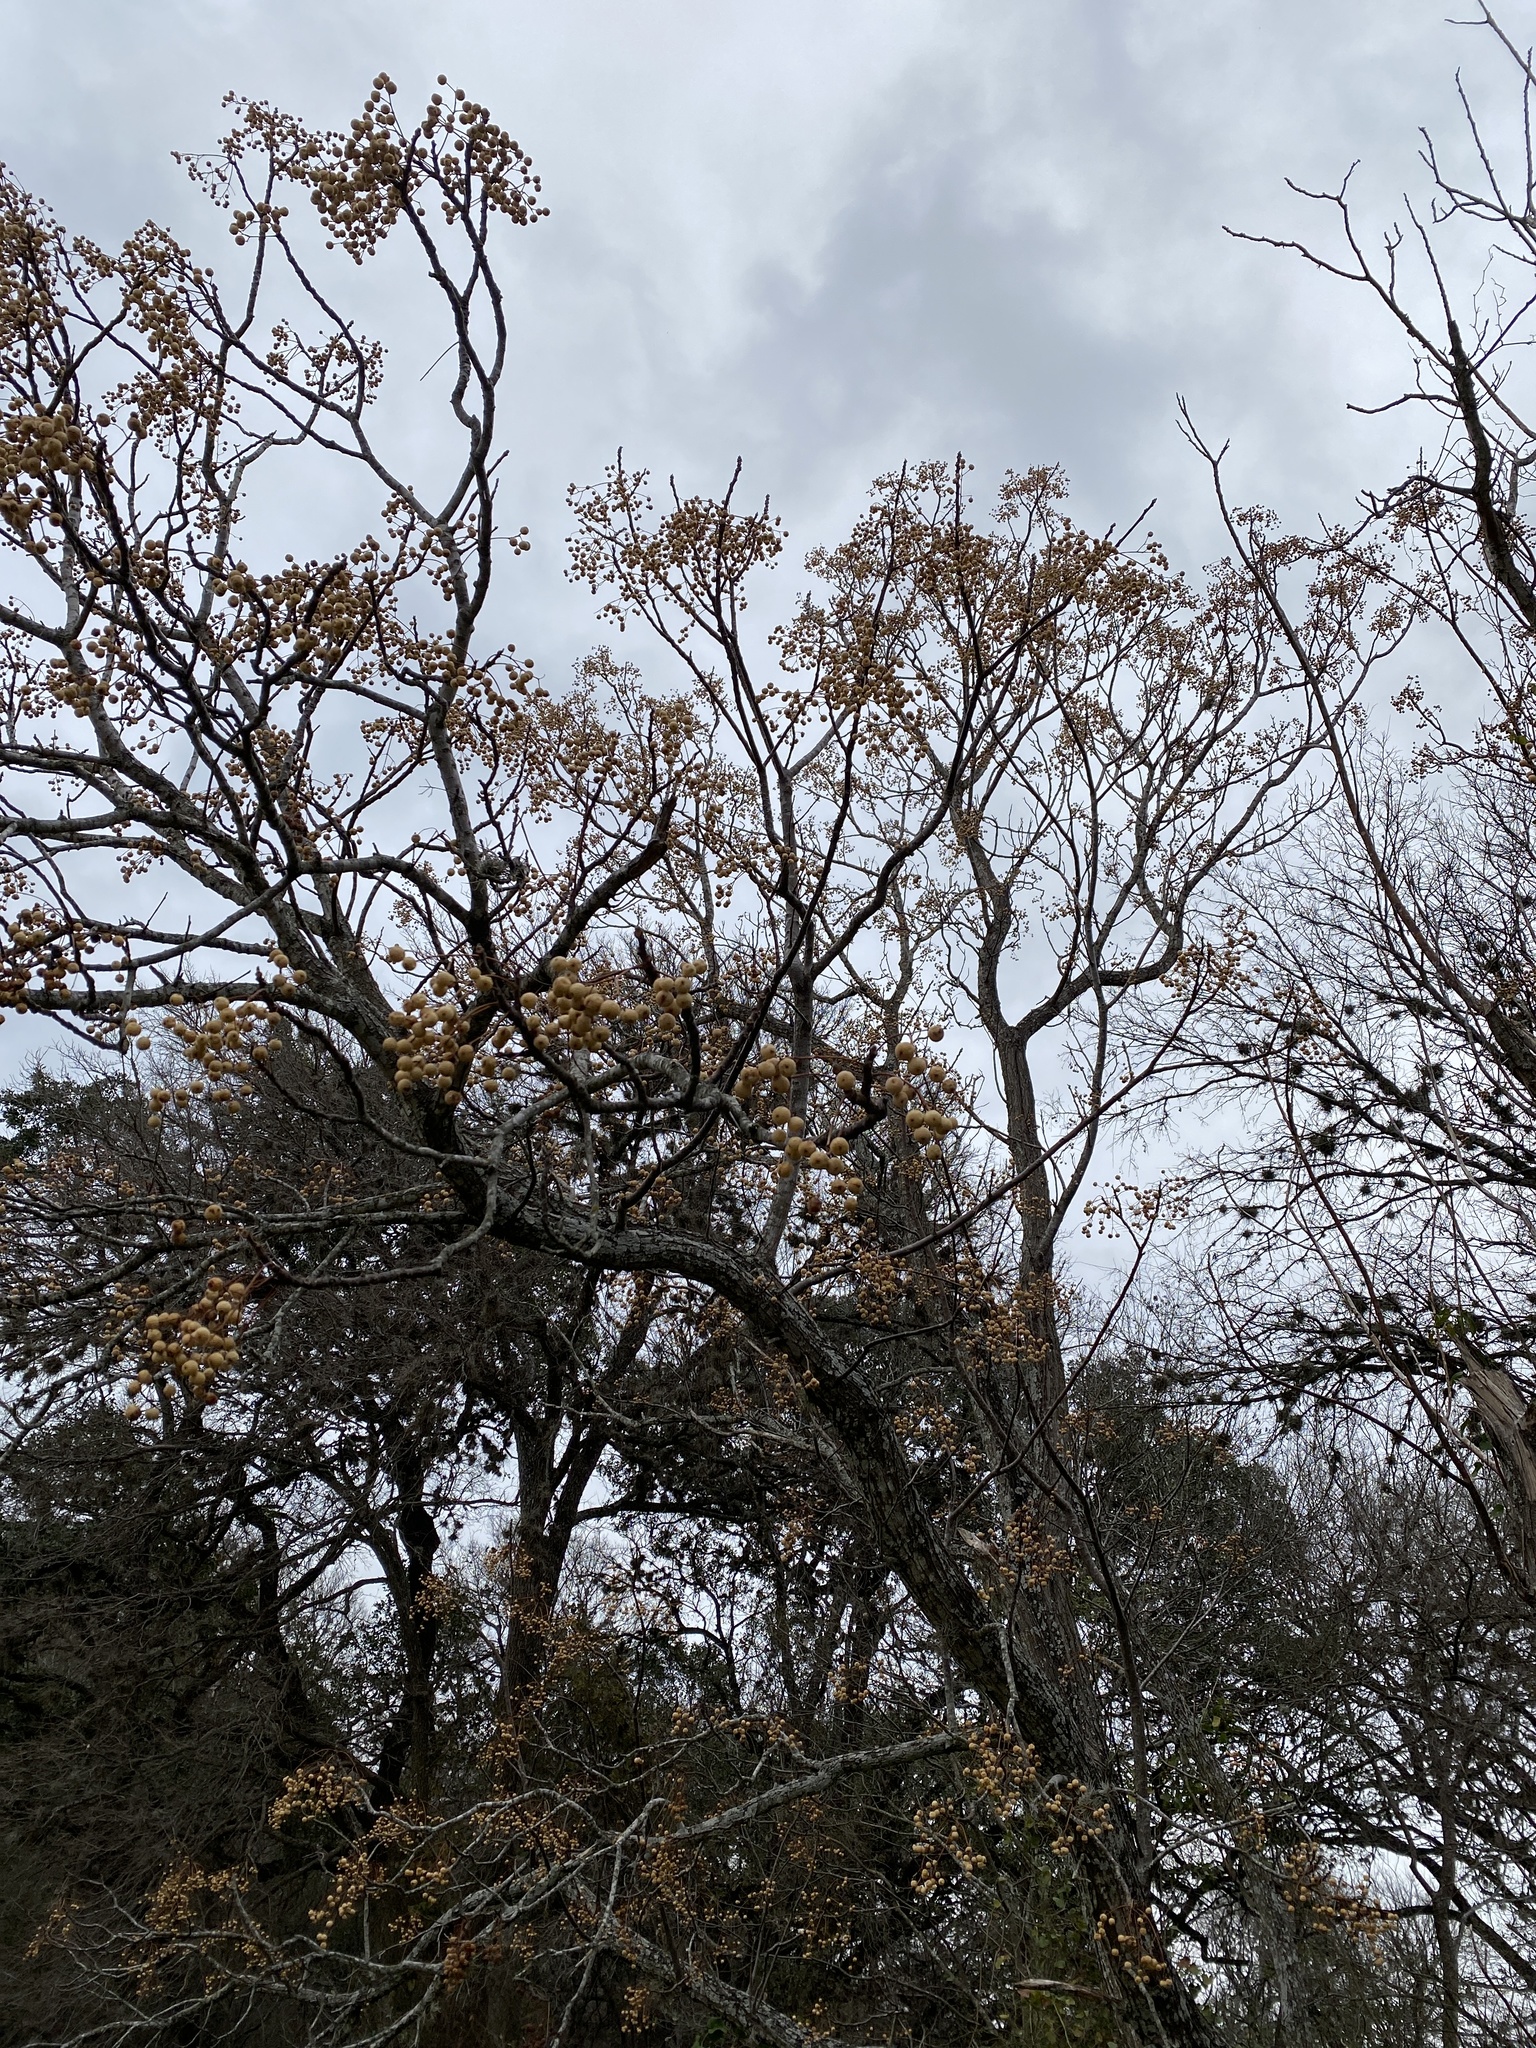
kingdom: Plantae
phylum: Tracheophyta
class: Magnoliopsida
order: Sapindales
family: Meliaceae
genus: Melia
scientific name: Melia azedarach
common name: Chinaberrytree
